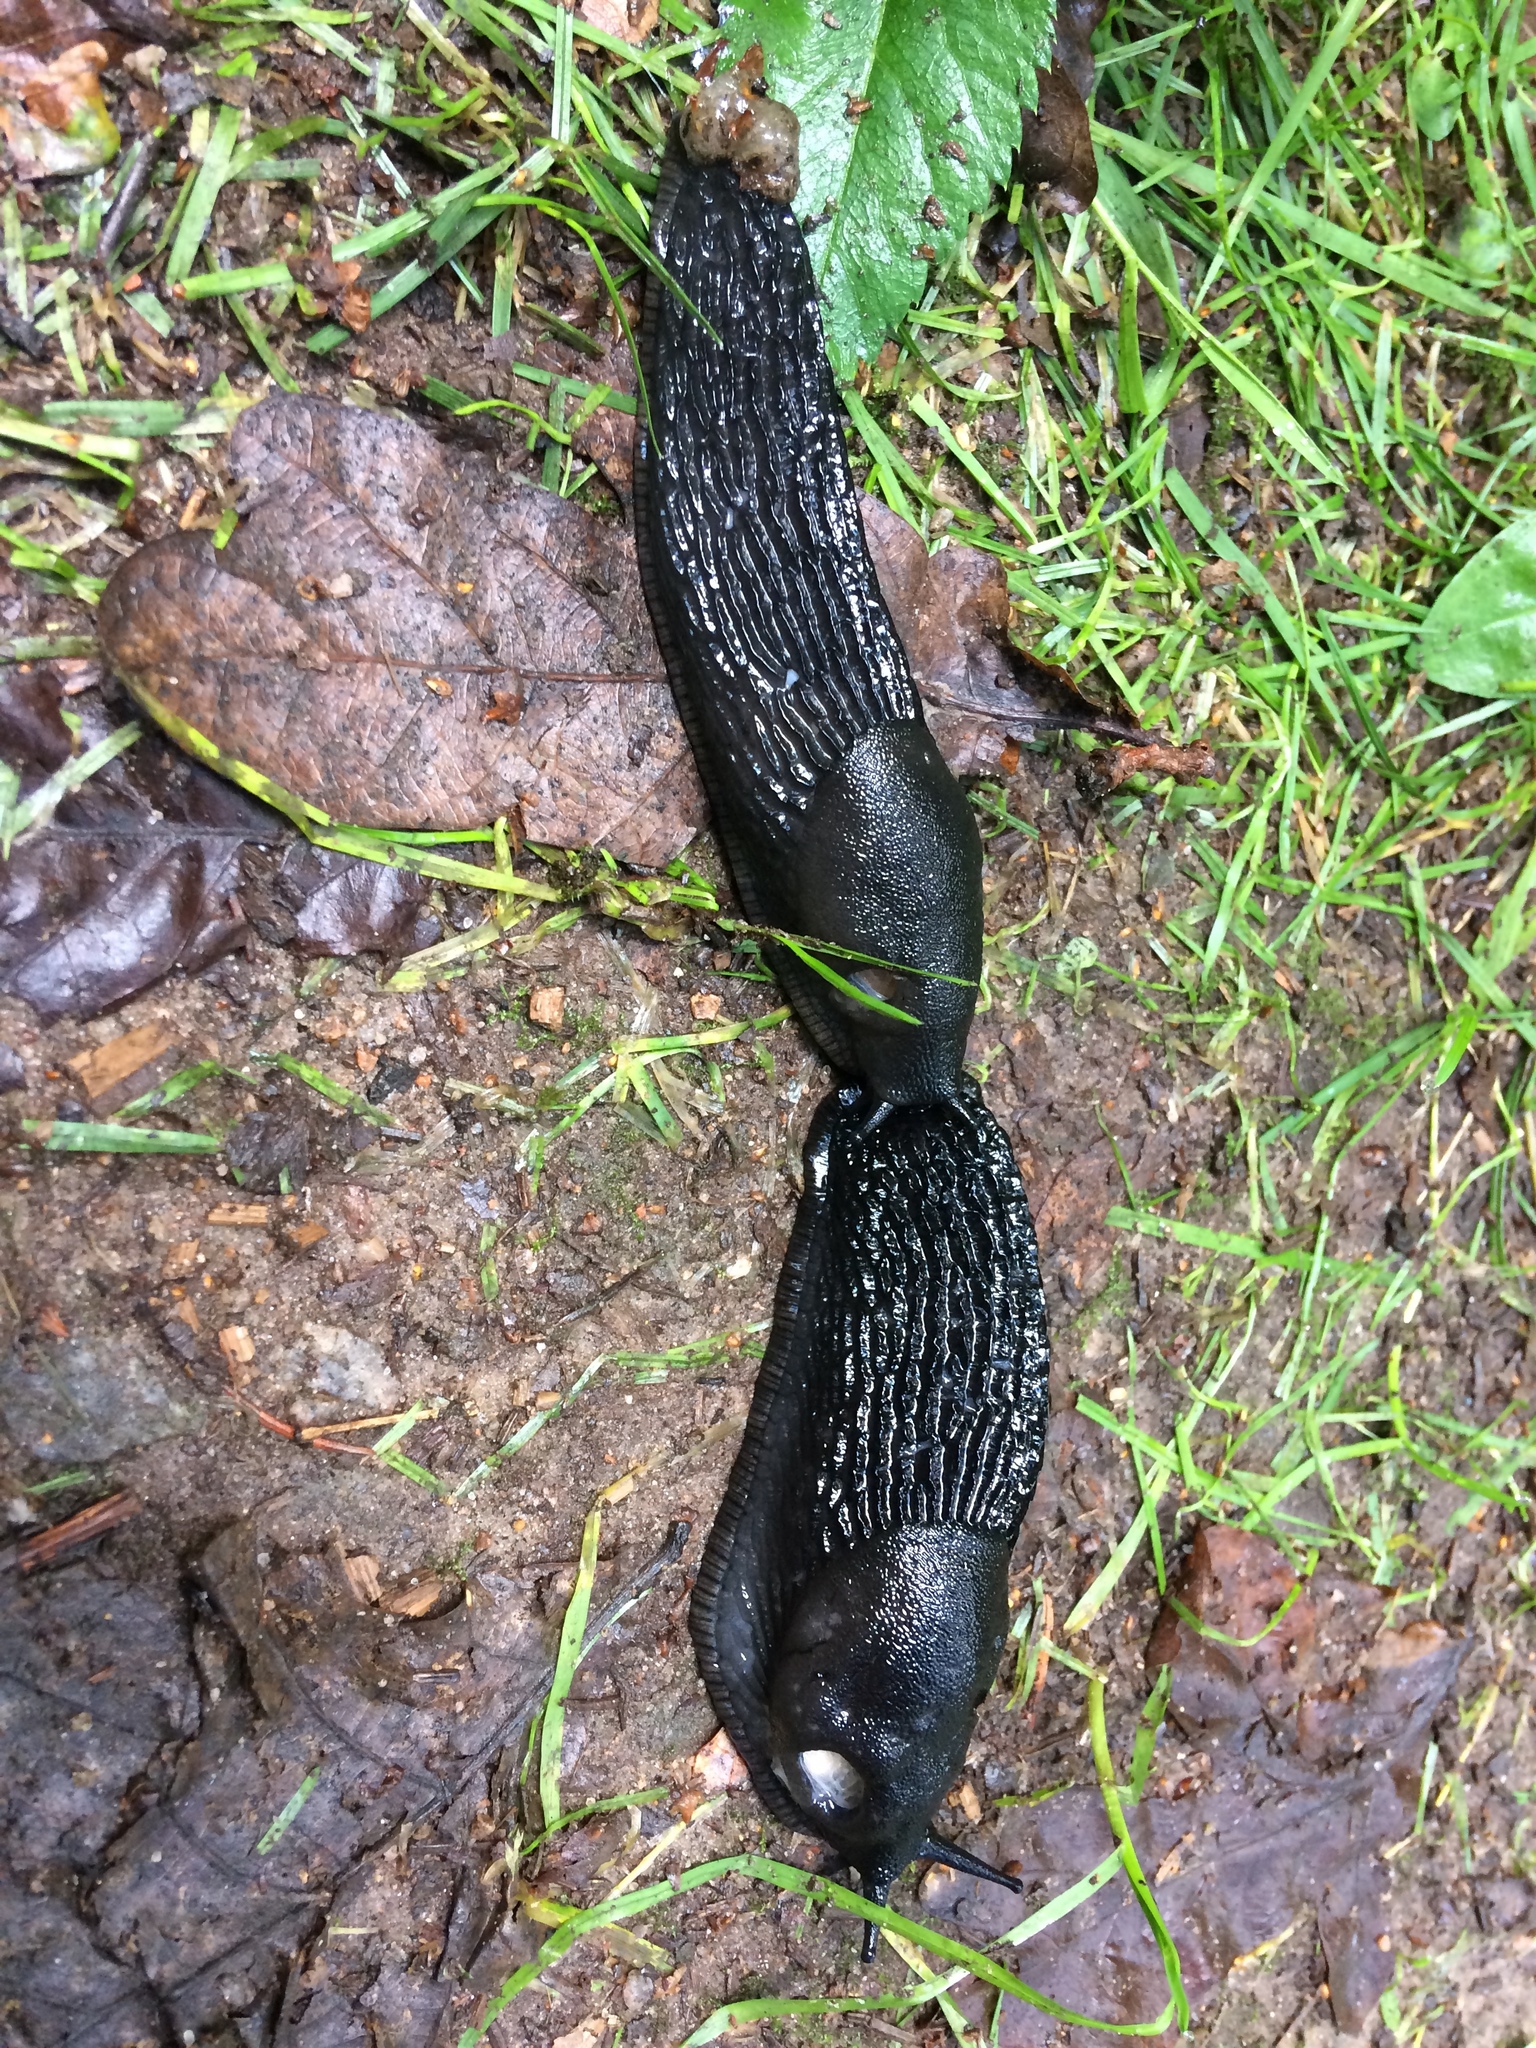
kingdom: Animalia
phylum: Mollusca
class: Gastropoda
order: Stylommatophora
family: Arionidae
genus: Arion
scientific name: Arion ater
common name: Black arion
